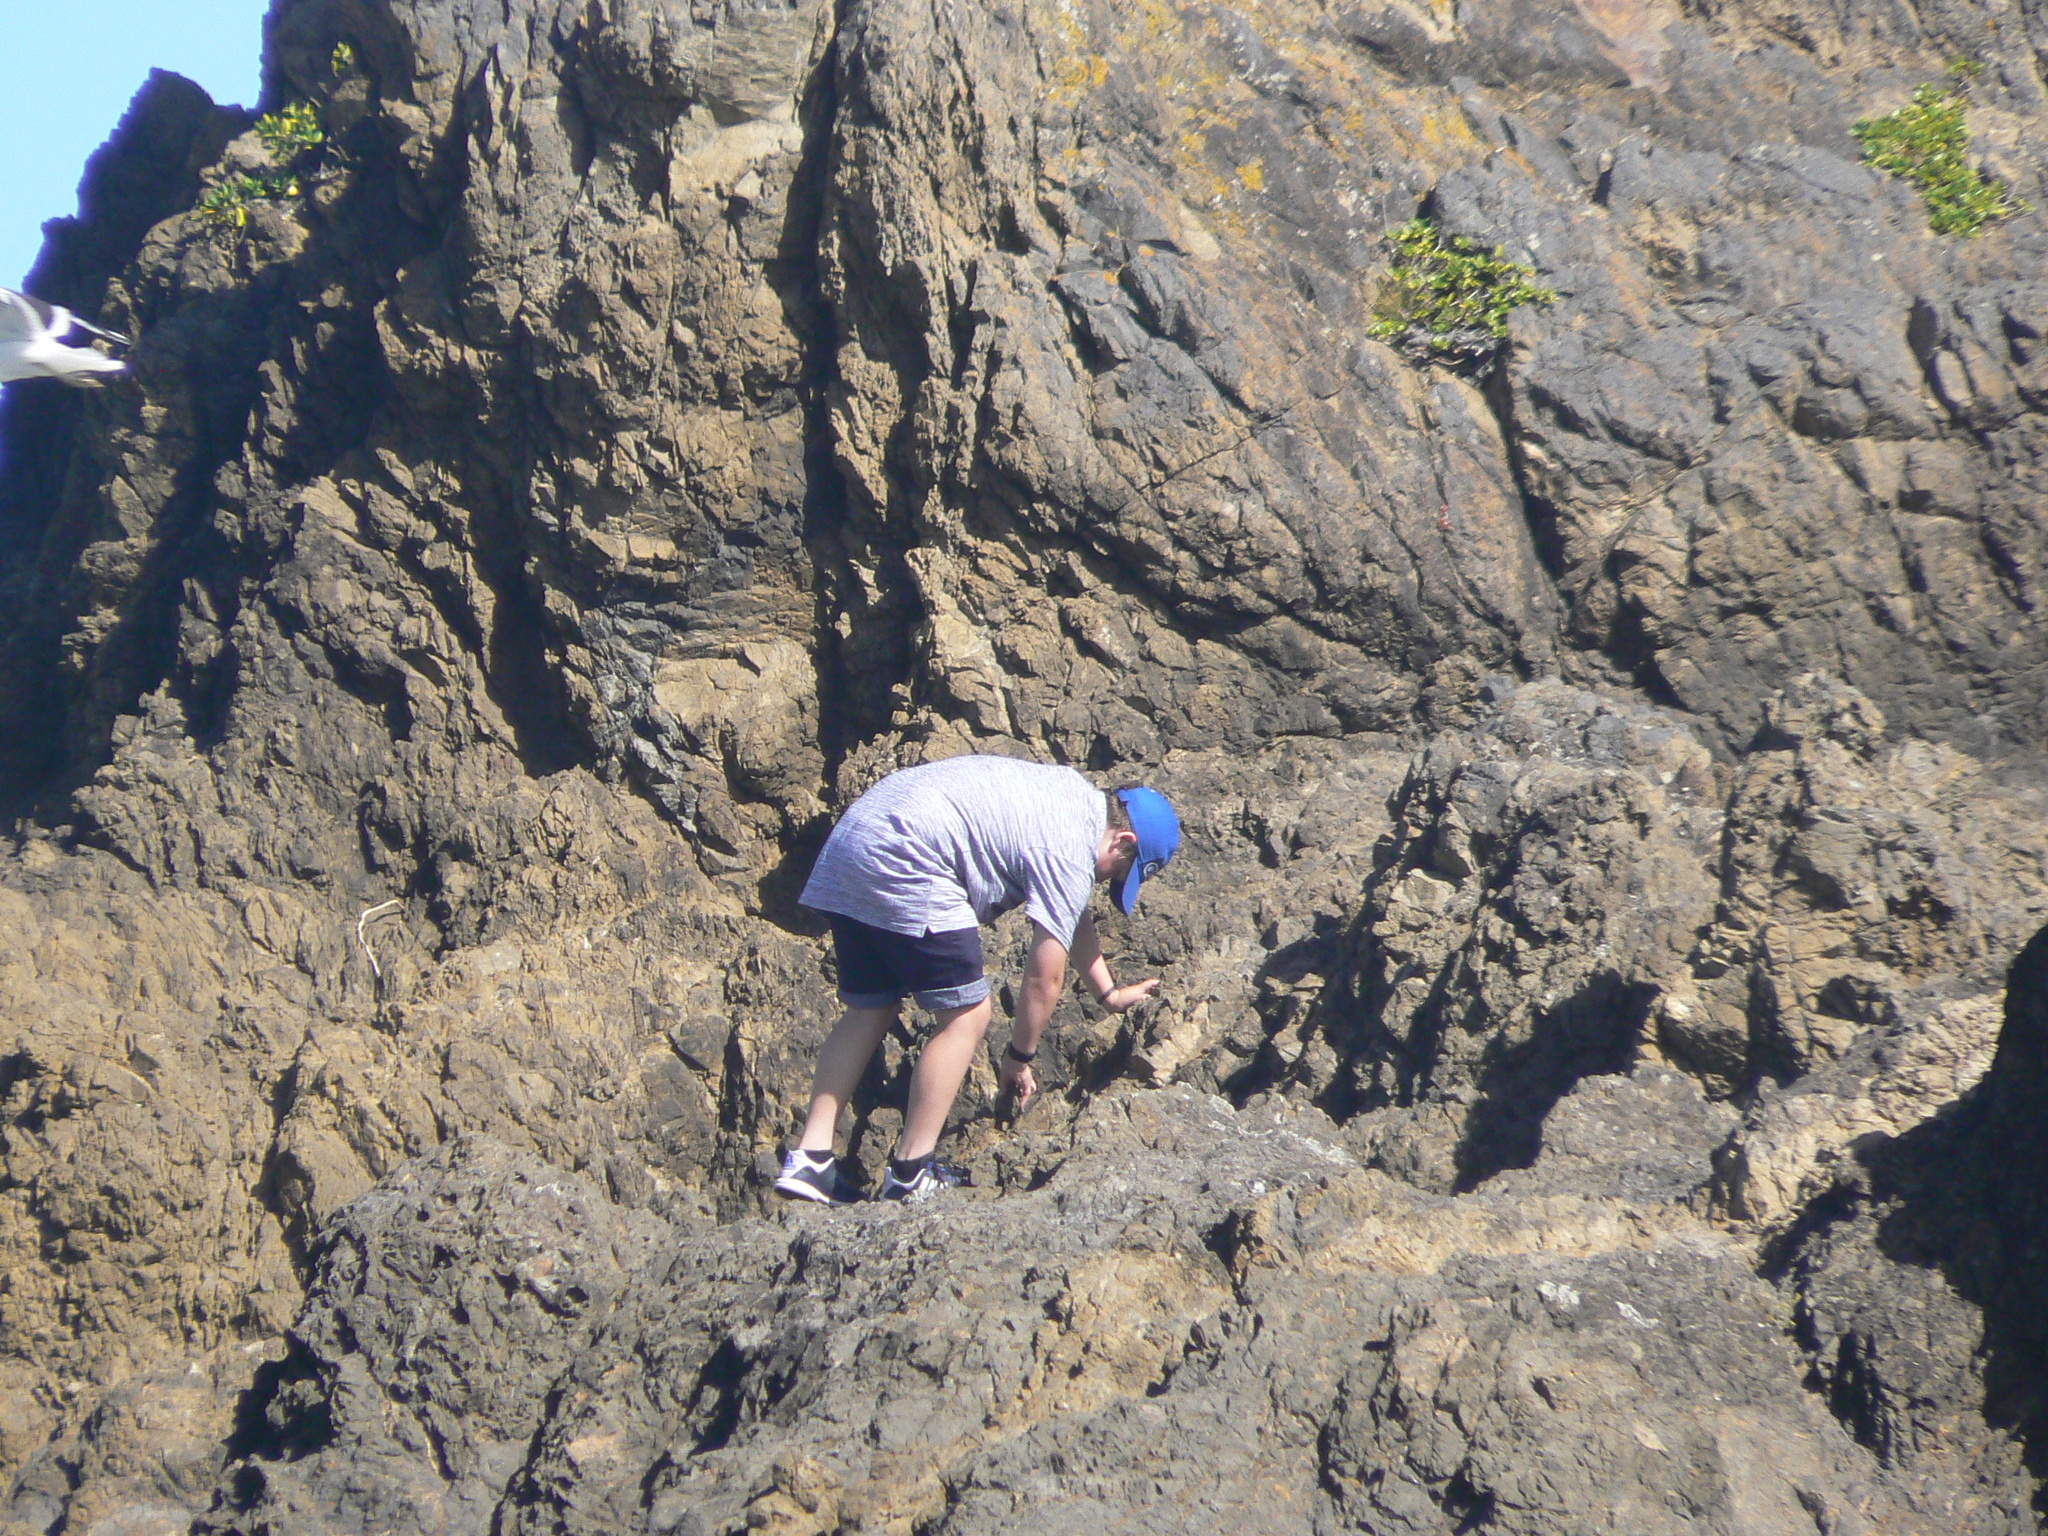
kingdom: Animalia
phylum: Chordata
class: Aves
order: Charadriiformes
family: Laridae
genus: Larus
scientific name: Larus dominicanus
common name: Kelp gull
